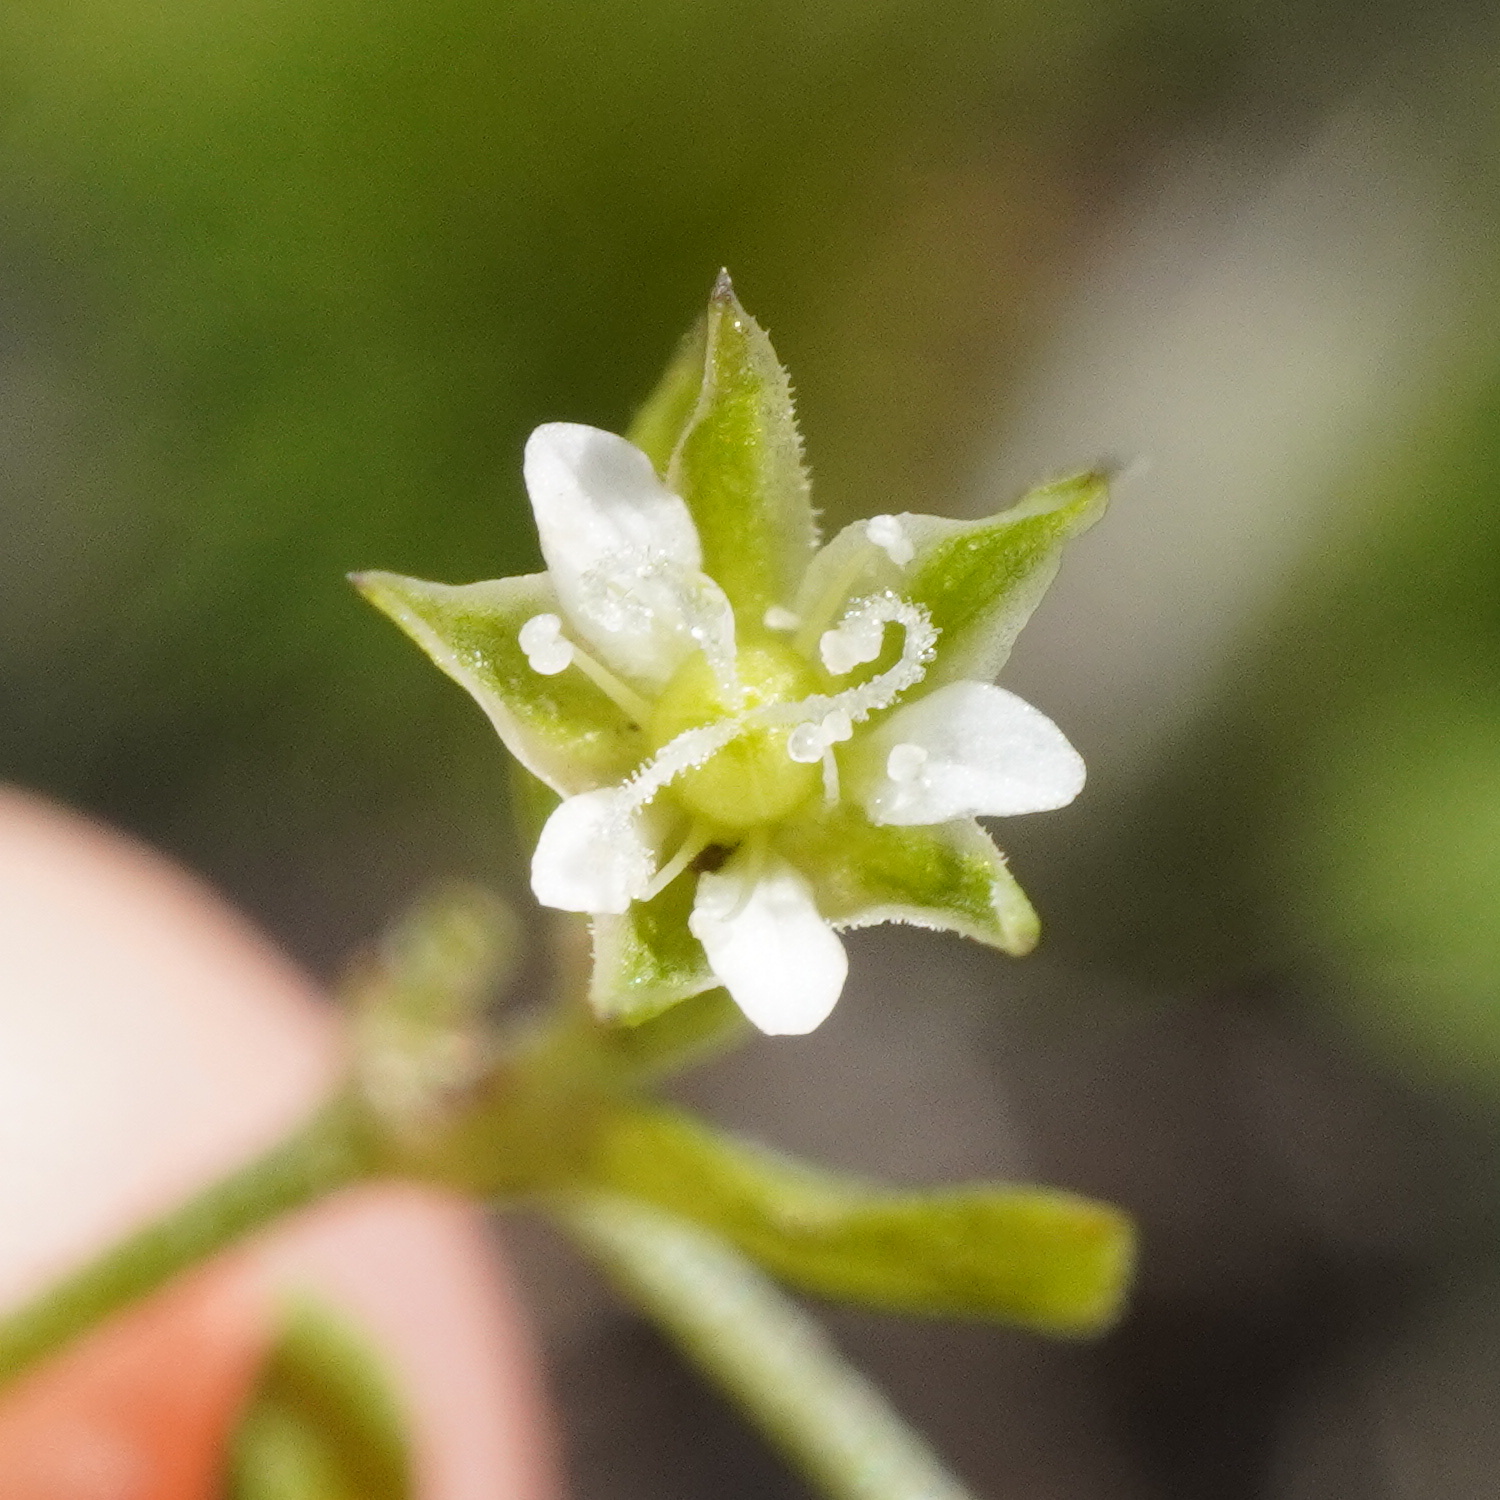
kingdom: Plantae
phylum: Tracheophyta
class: Magnoliopsida
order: Caryophyllales
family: Caryophyllaceae
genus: Moehringia
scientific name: Moehringia trinervia
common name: Three-nerved sandwort
